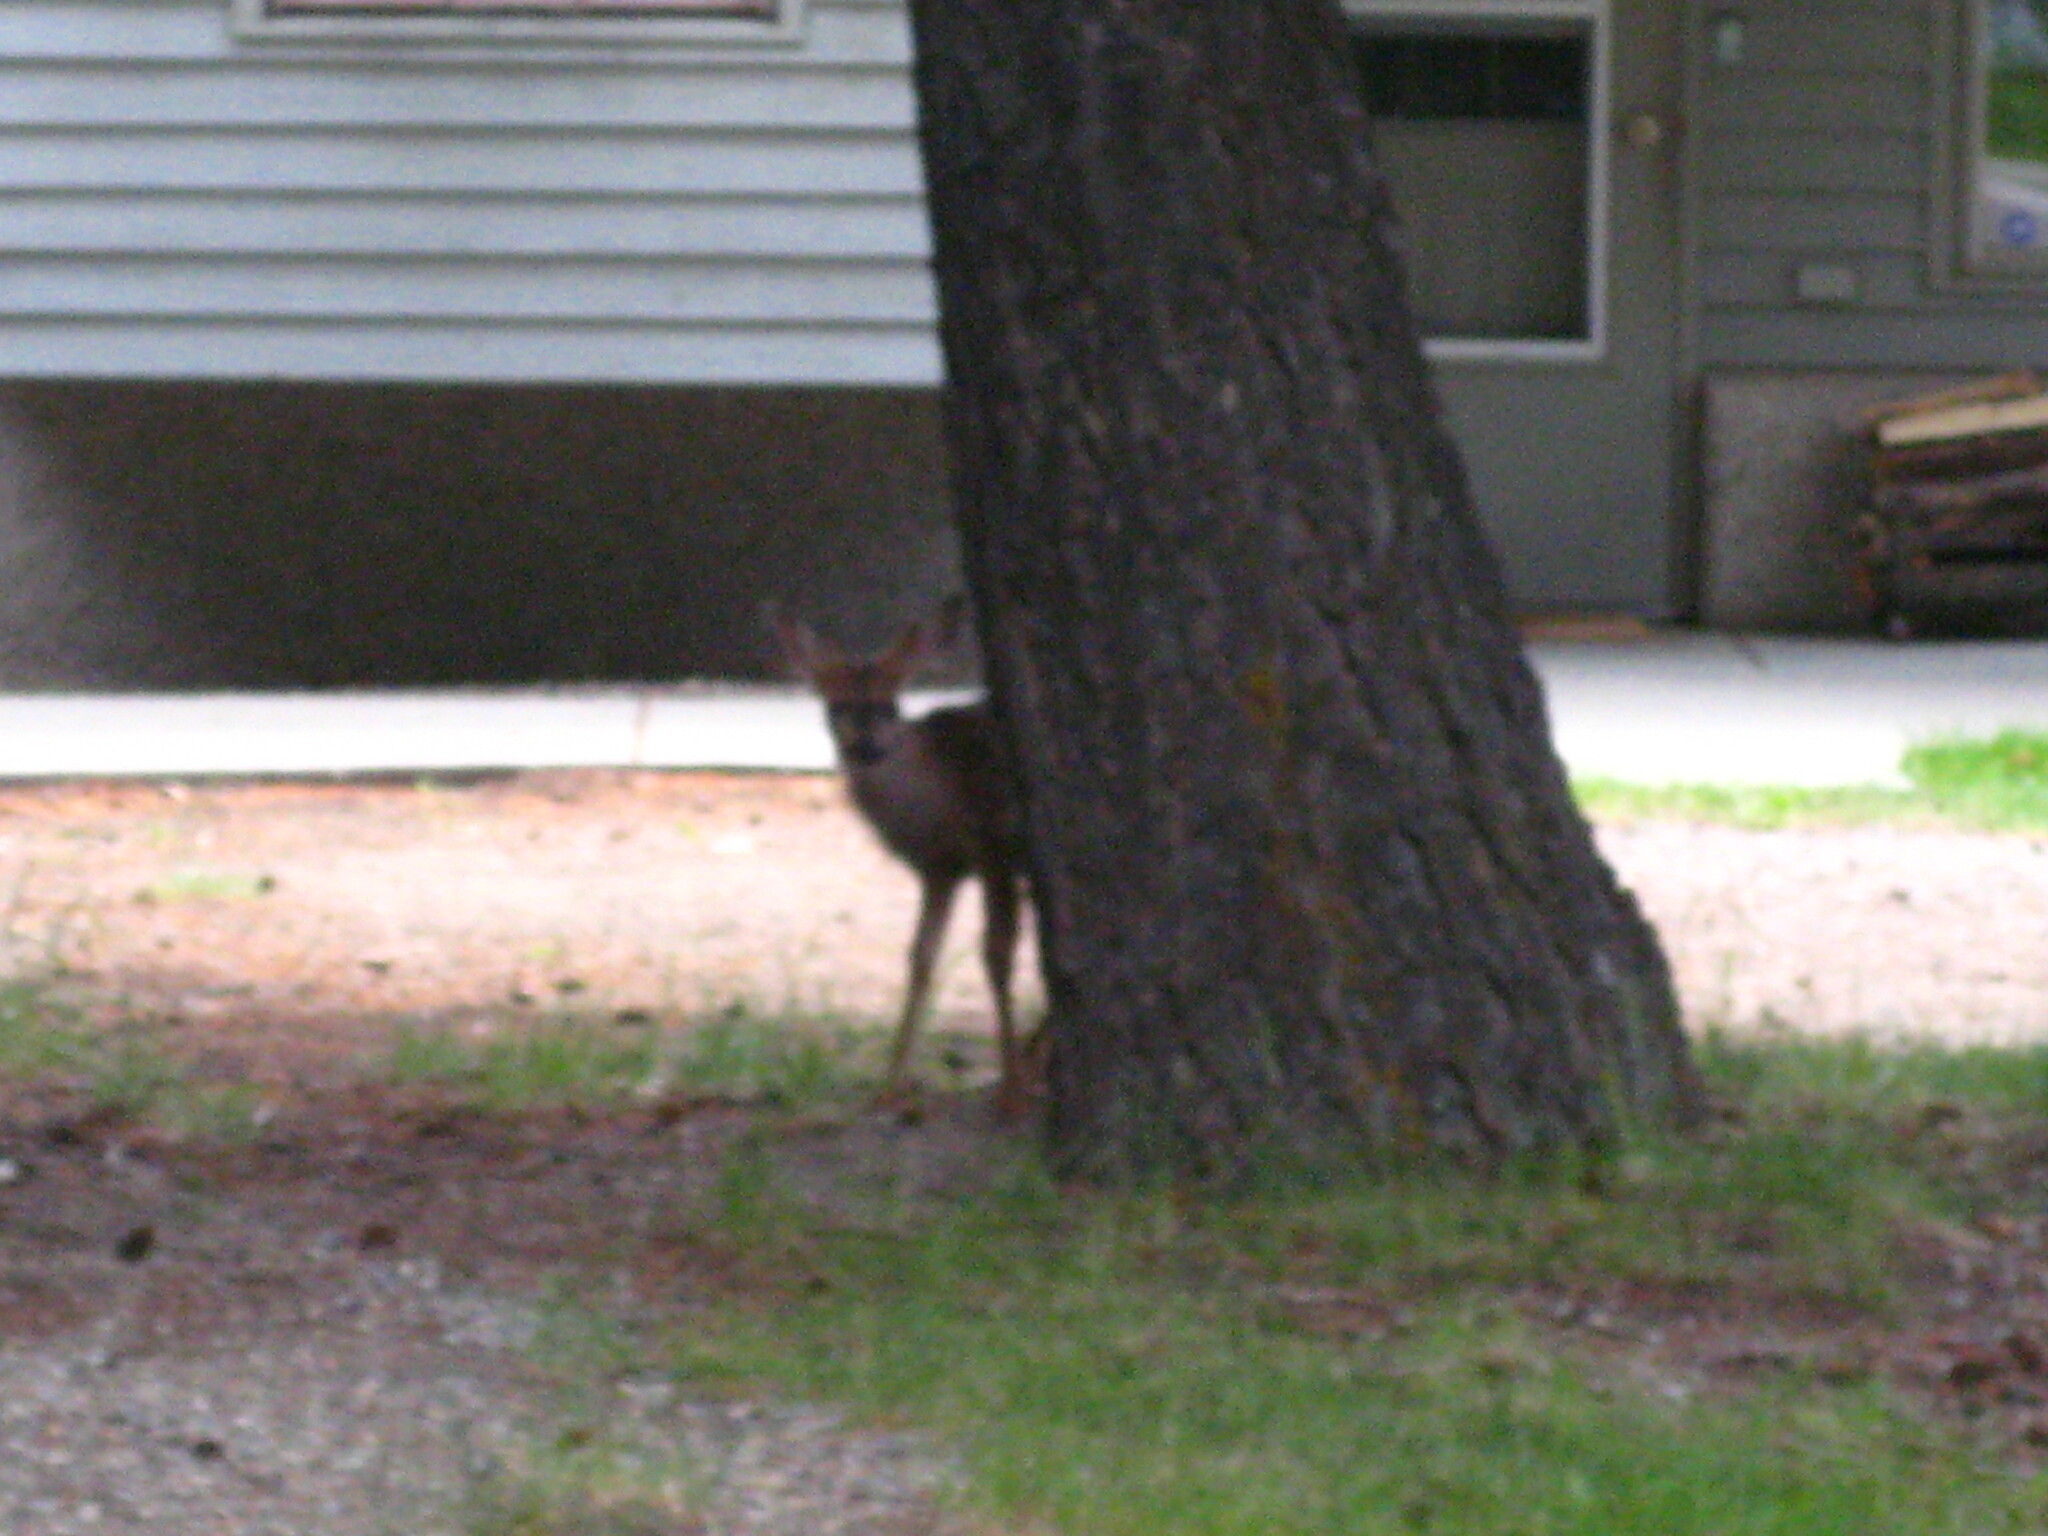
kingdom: Animalia
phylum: Chordata
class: Mammalia
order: Artiodactyla
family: Cervidae
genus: Odocoileus
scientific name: Odocoileus hemionus
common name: Mule deer
